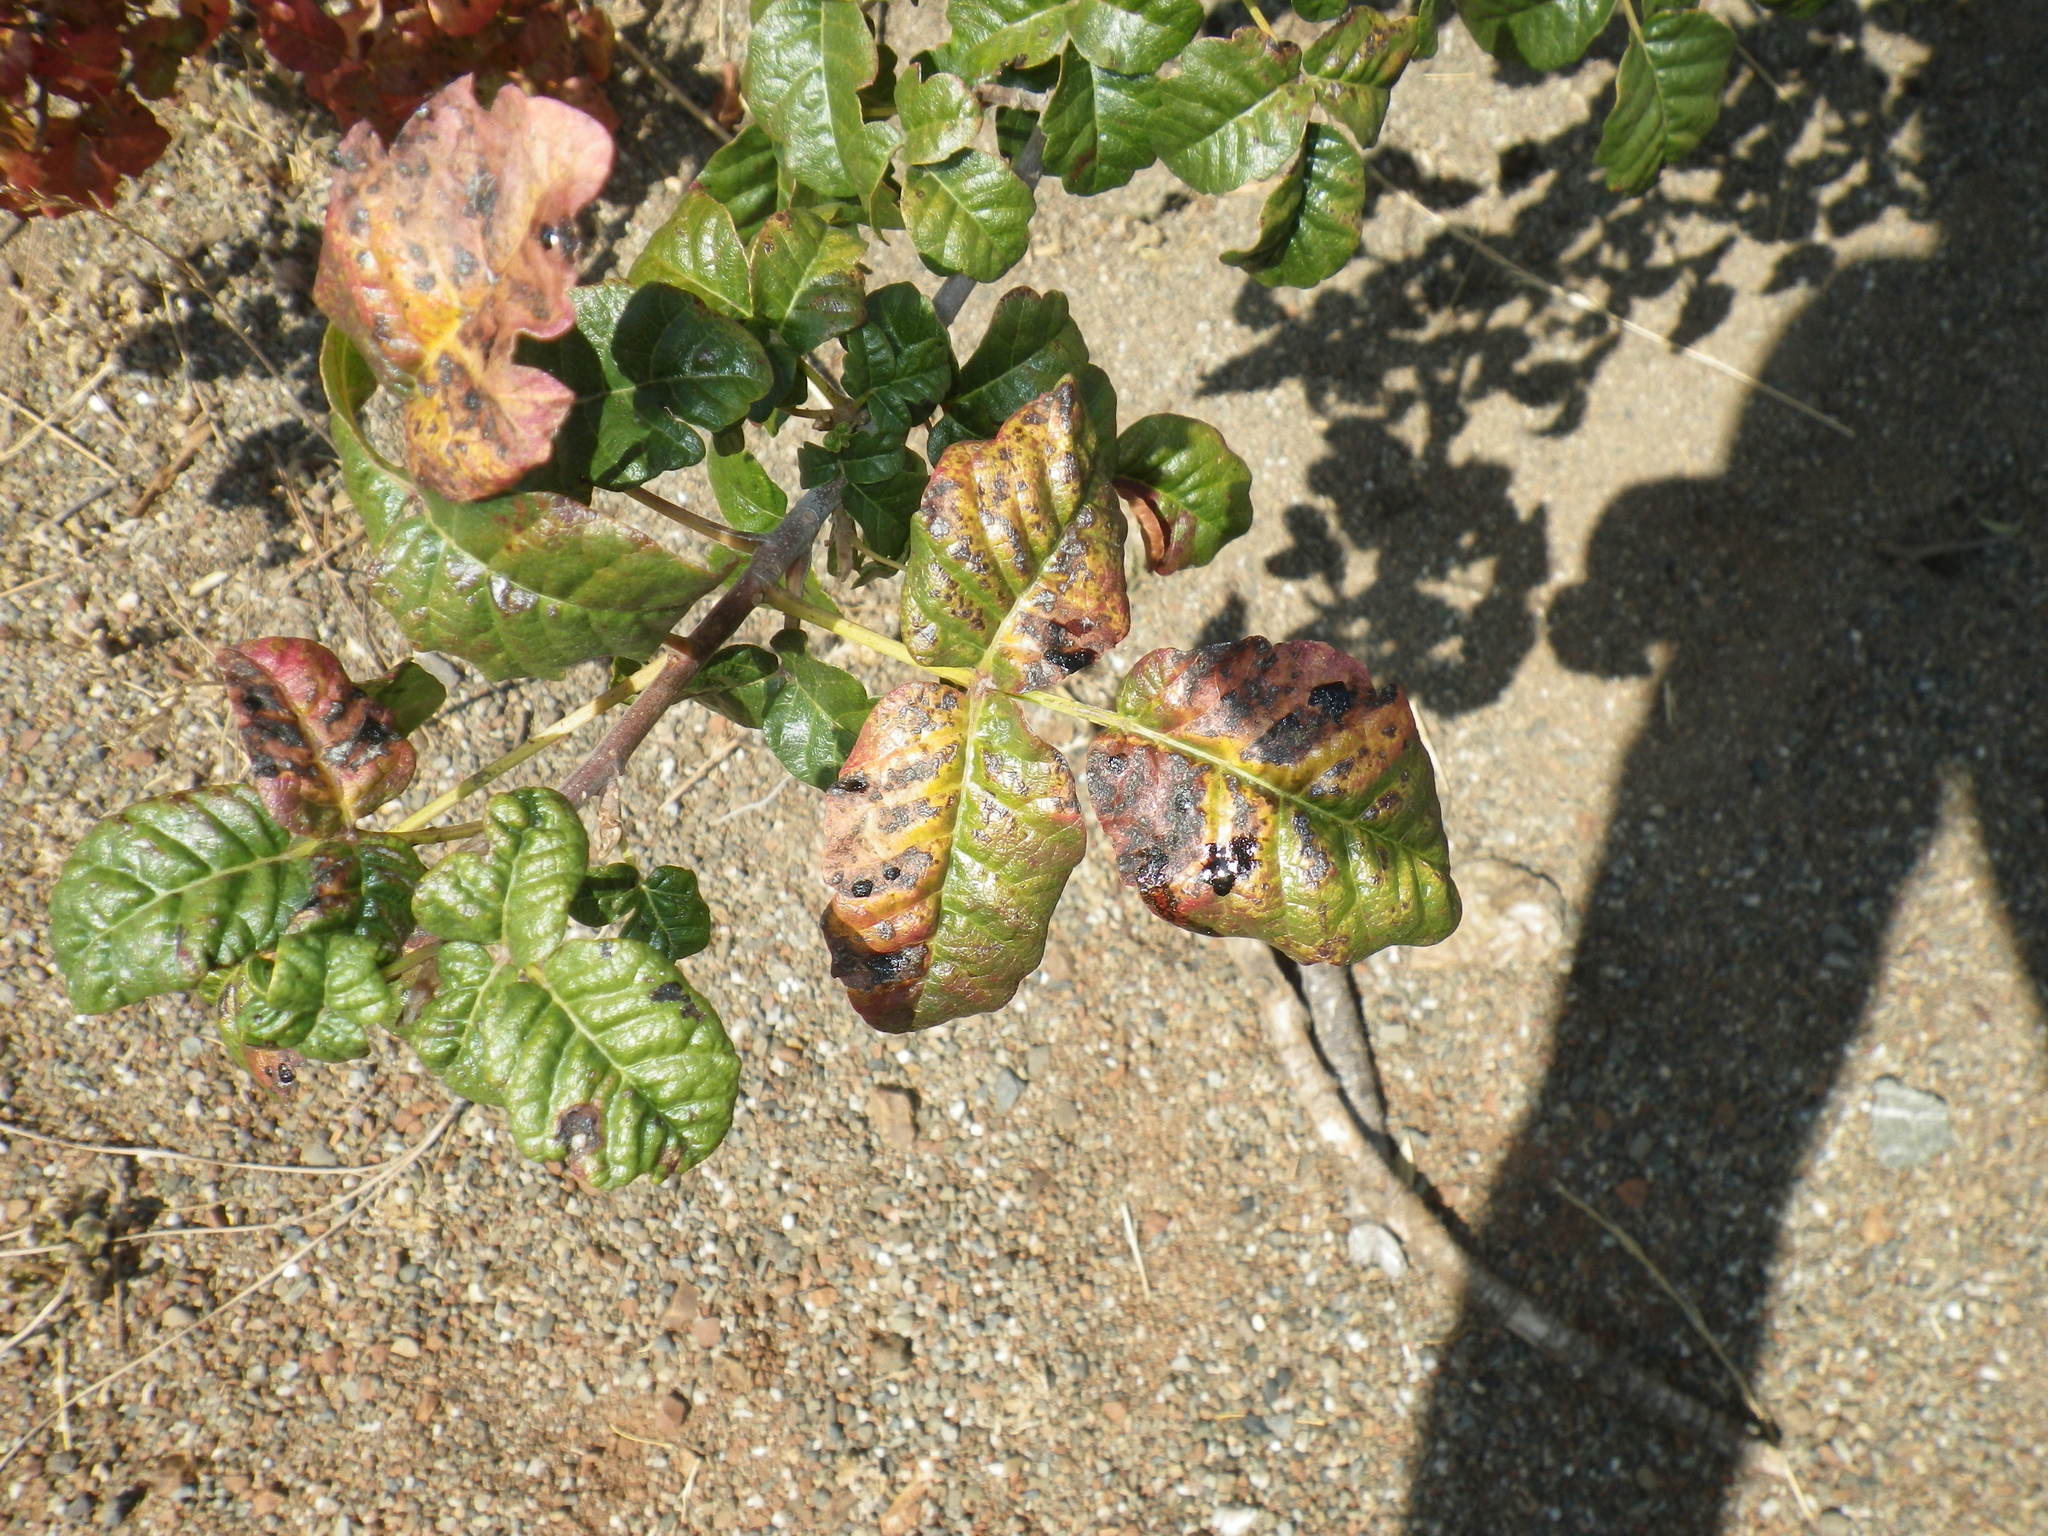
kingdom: Plantae
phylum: Tracheophyta
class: Magnoliopsida
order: Sapindales
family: Anacardiaceae
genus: Toxicodendron
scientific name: Toxicodendron diversilobum
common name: Pacific poison-oak
